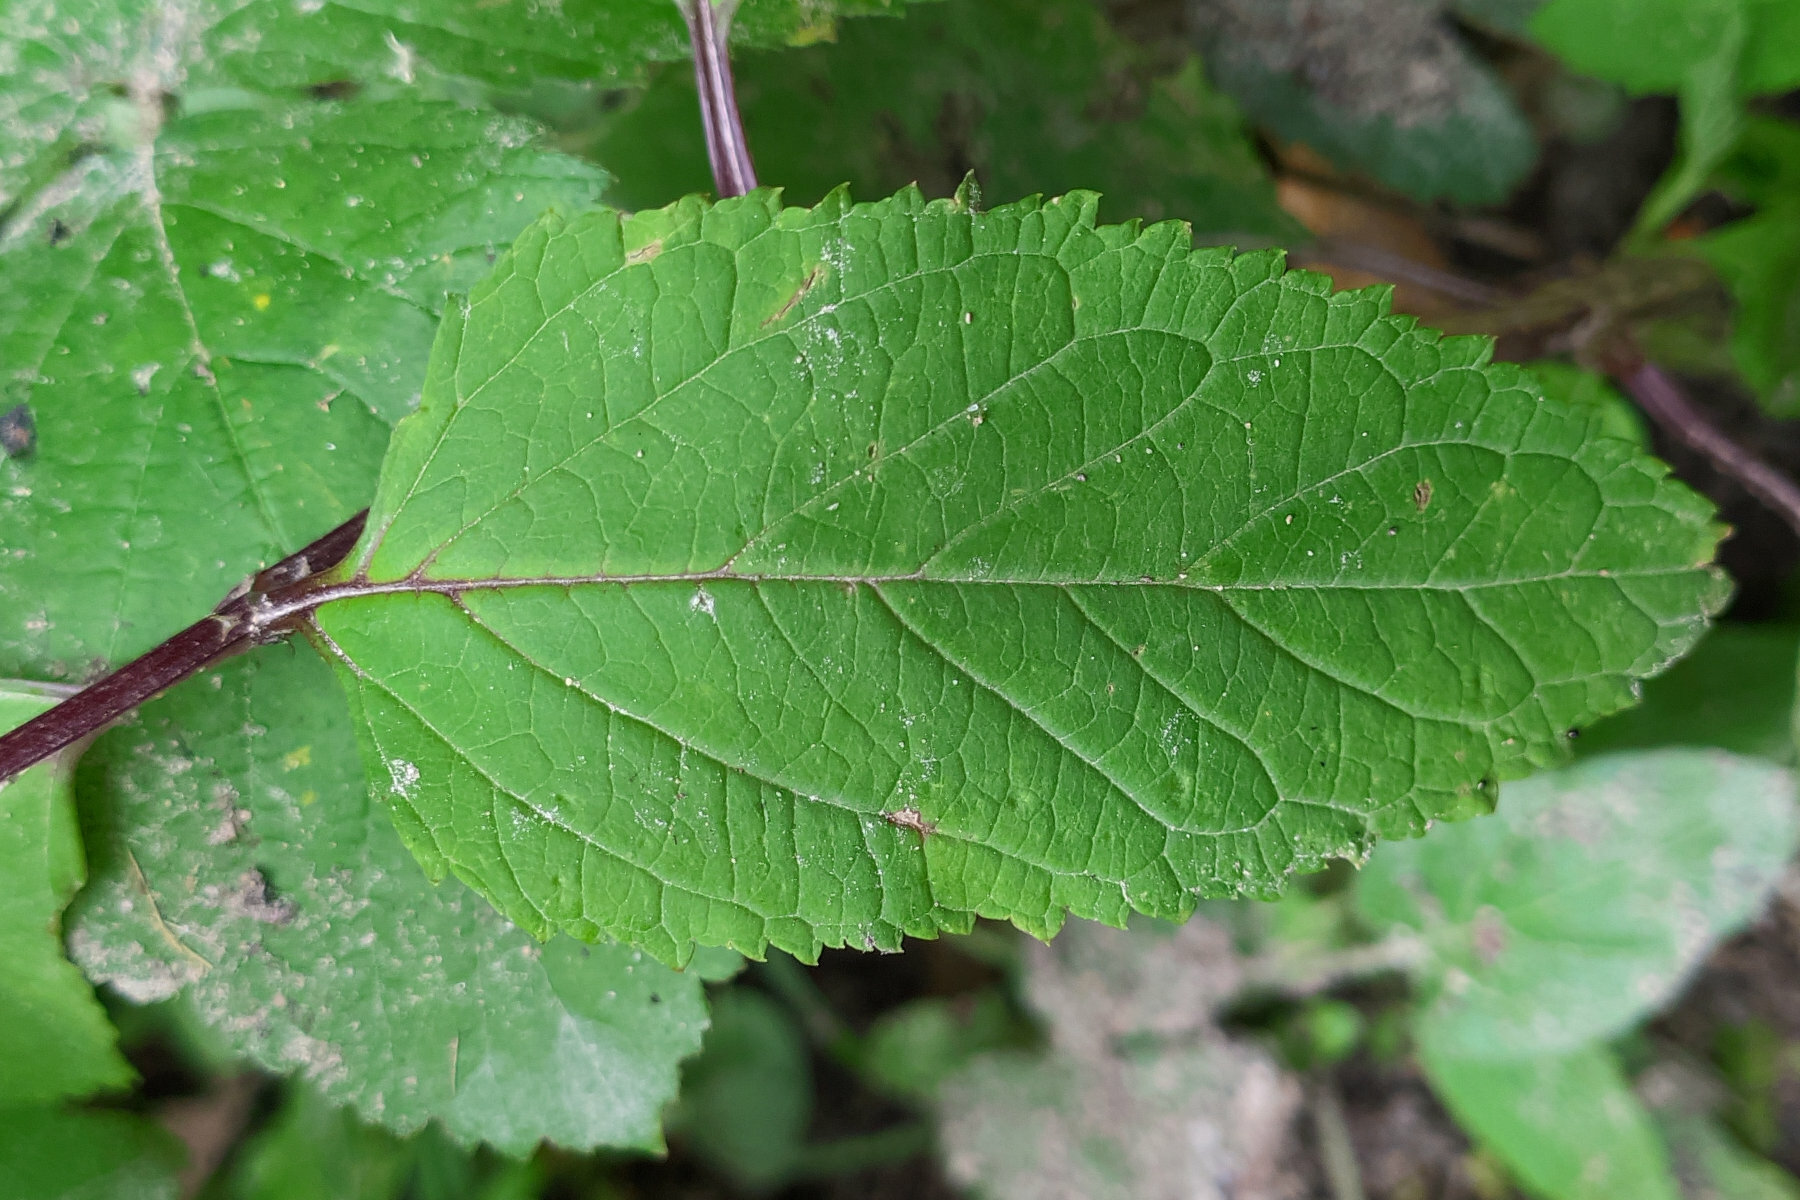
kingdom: Plantae
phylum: Tracheophyta
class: Magnoliopsida
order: Lamiales
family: Scrophulariaceae
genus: Scrophularia
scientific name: Scrophularia nodosa
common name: Common figwort
